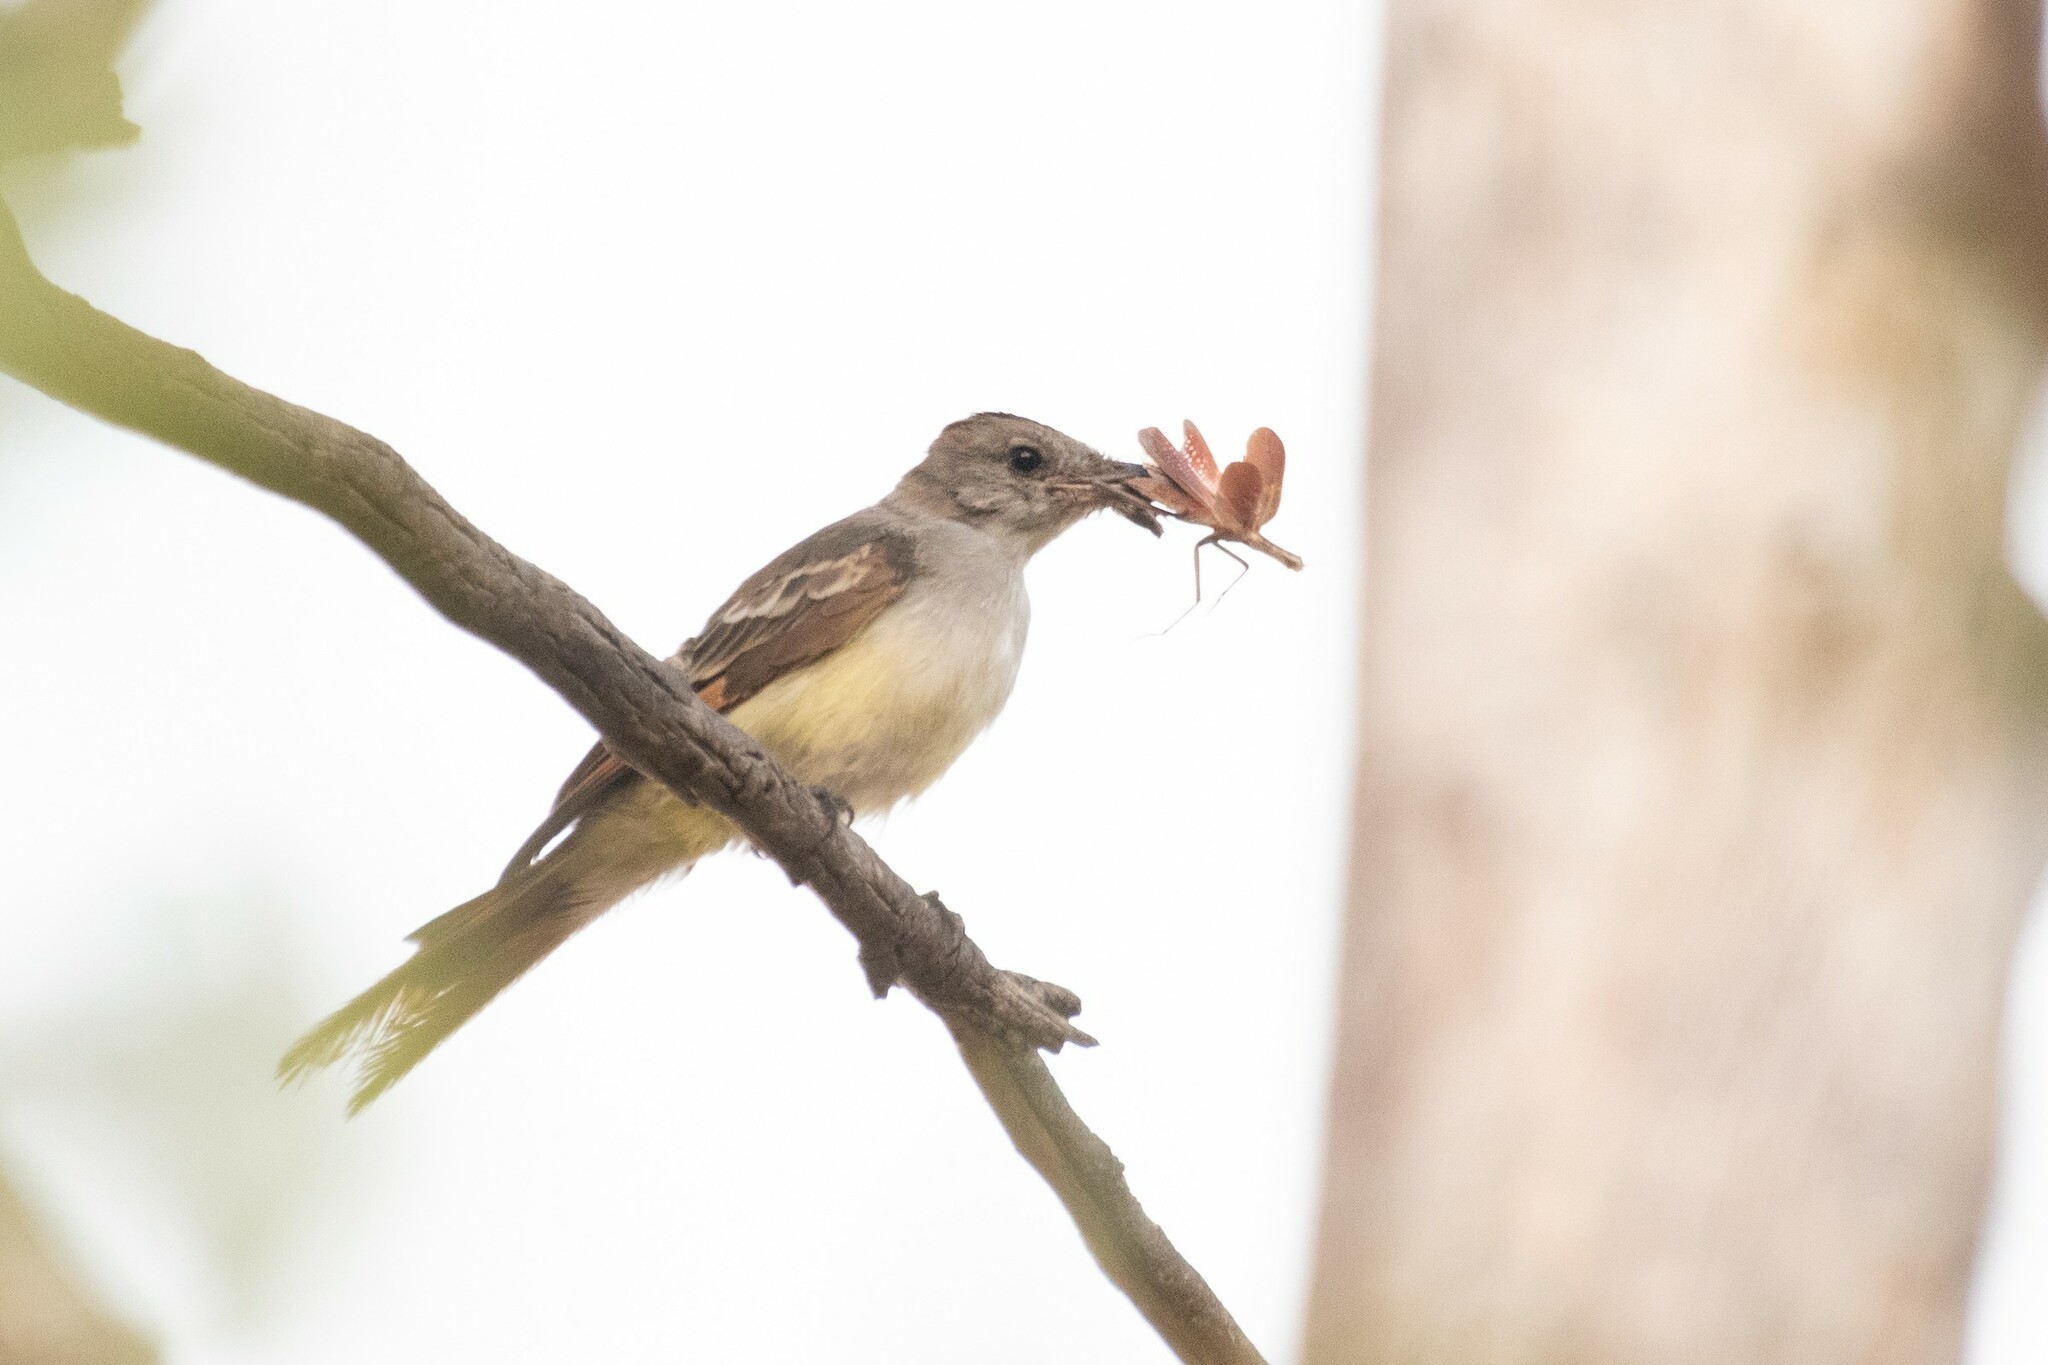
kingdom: Animalia
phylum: Chordata
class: Aves
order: Passeriformes
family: Tyrannidae
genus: Myiarchus
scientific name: Myiarchus cinerascens
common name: Ash-throated flycatcher
